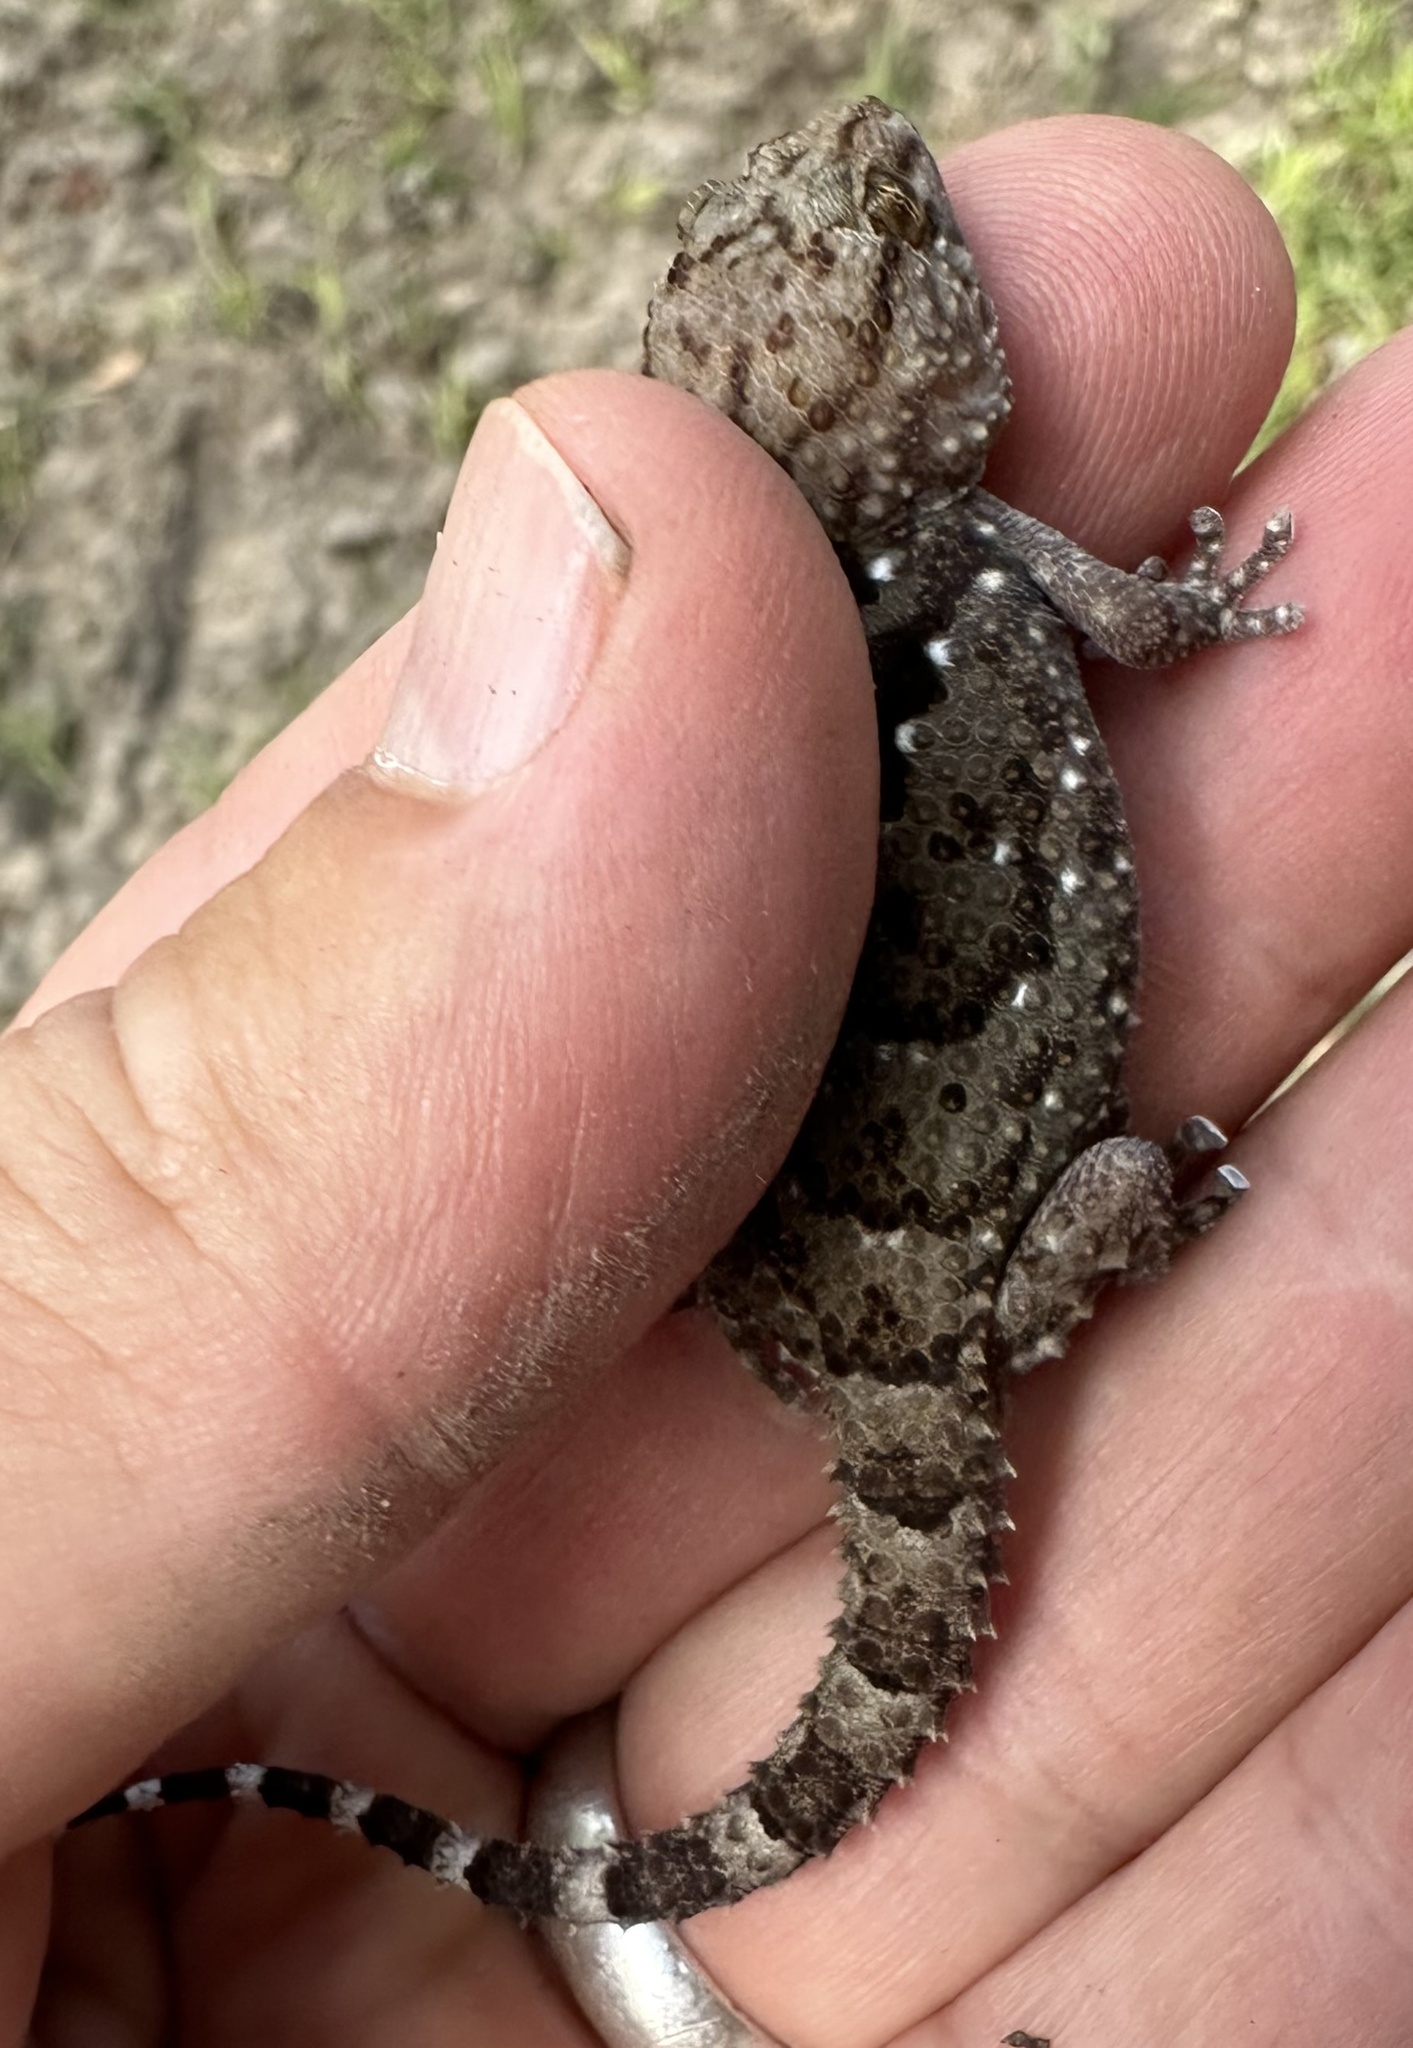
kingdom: Animalia
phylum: Chordata
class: Squamata
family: Gekkonidae
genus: Chondrodactylus
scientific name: Chondrodactylus laevigatus
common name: Fischer's thick-toed gecko
